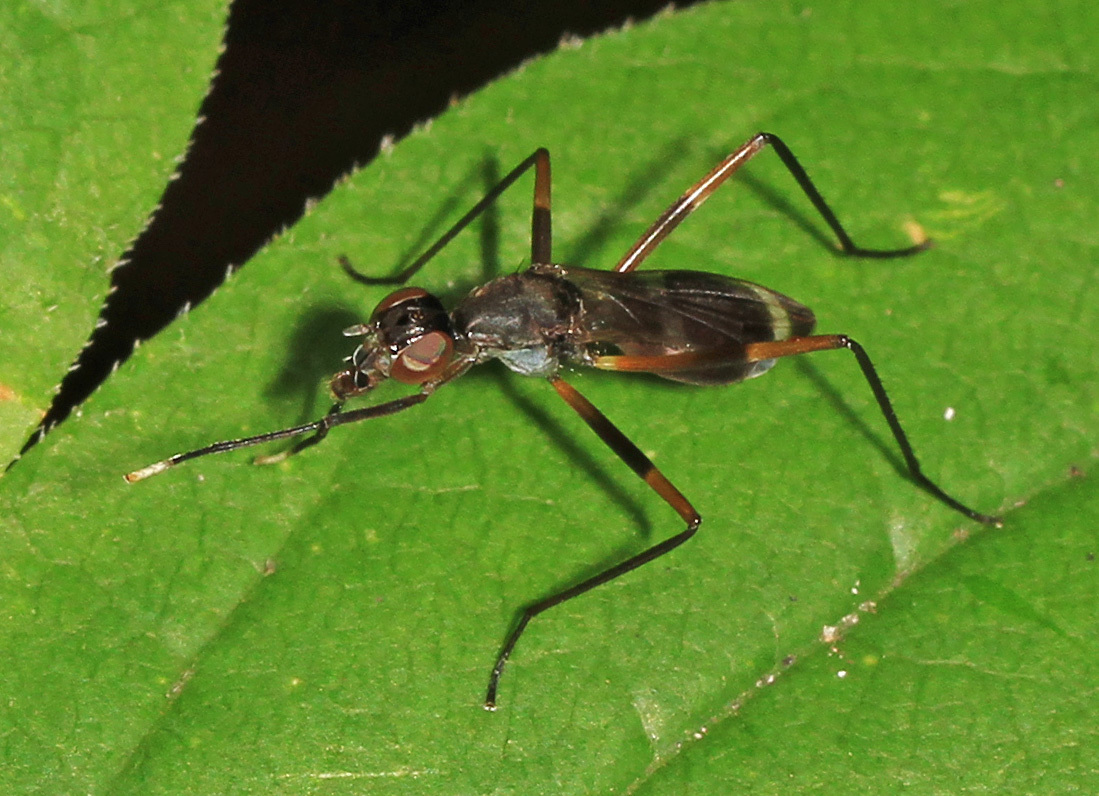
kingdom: Animalia
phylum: Arthropoda
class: Insecta
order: Diptera
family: Micropezidae
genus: Taeniaptera
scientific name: Taeniaptera trivittata
